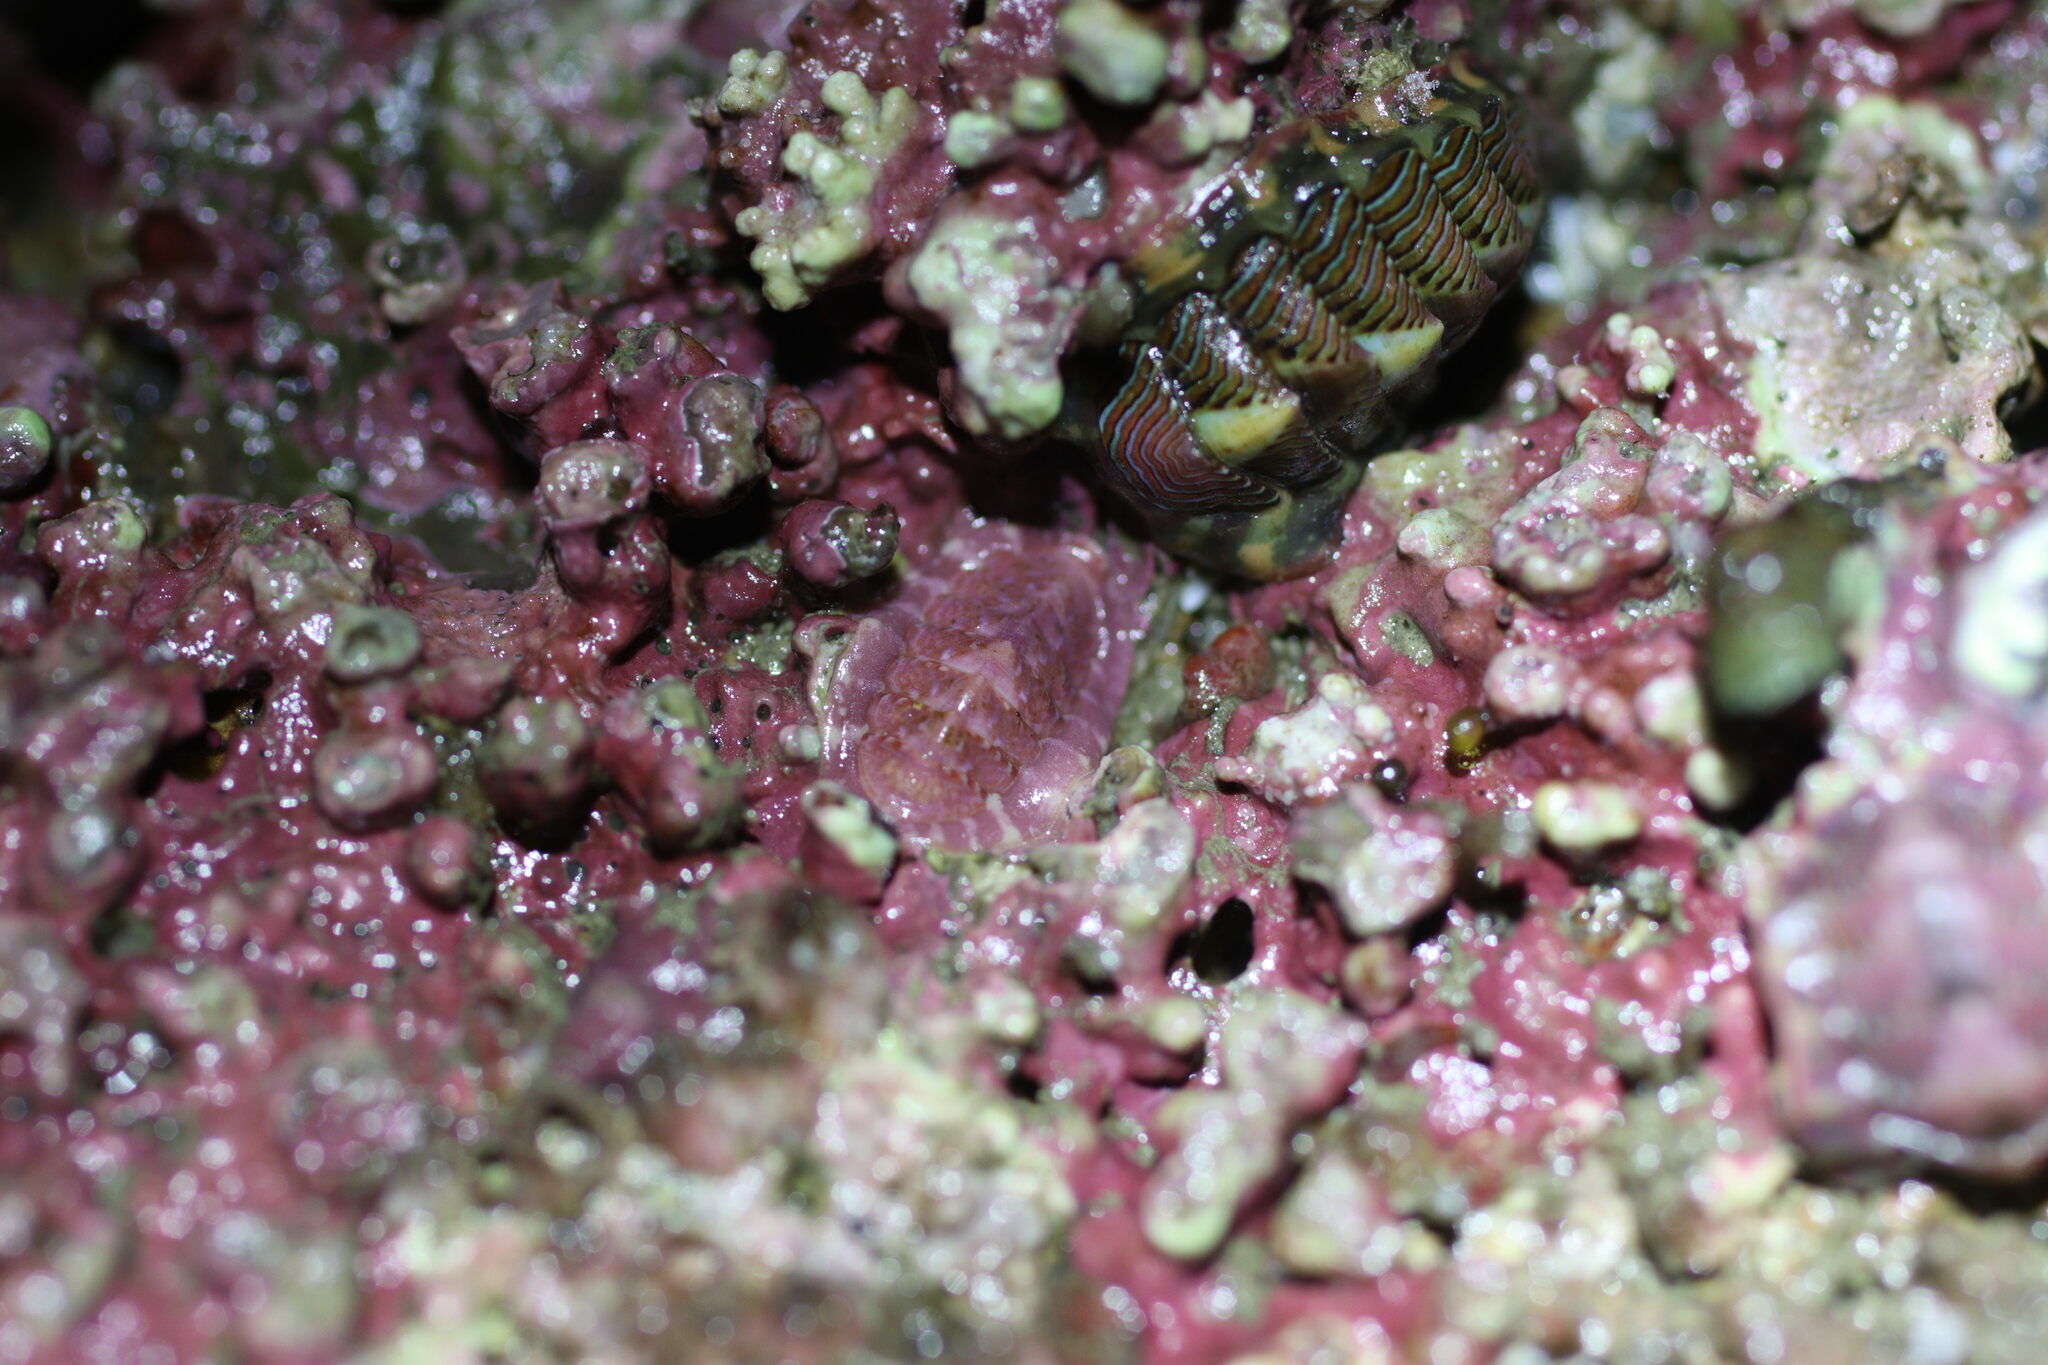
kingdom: Animalia
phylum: Mollusca
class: Polyplacophora
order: Chitonida
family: Tonicellidae
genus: Tonicella
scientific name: Tonicella venusta
